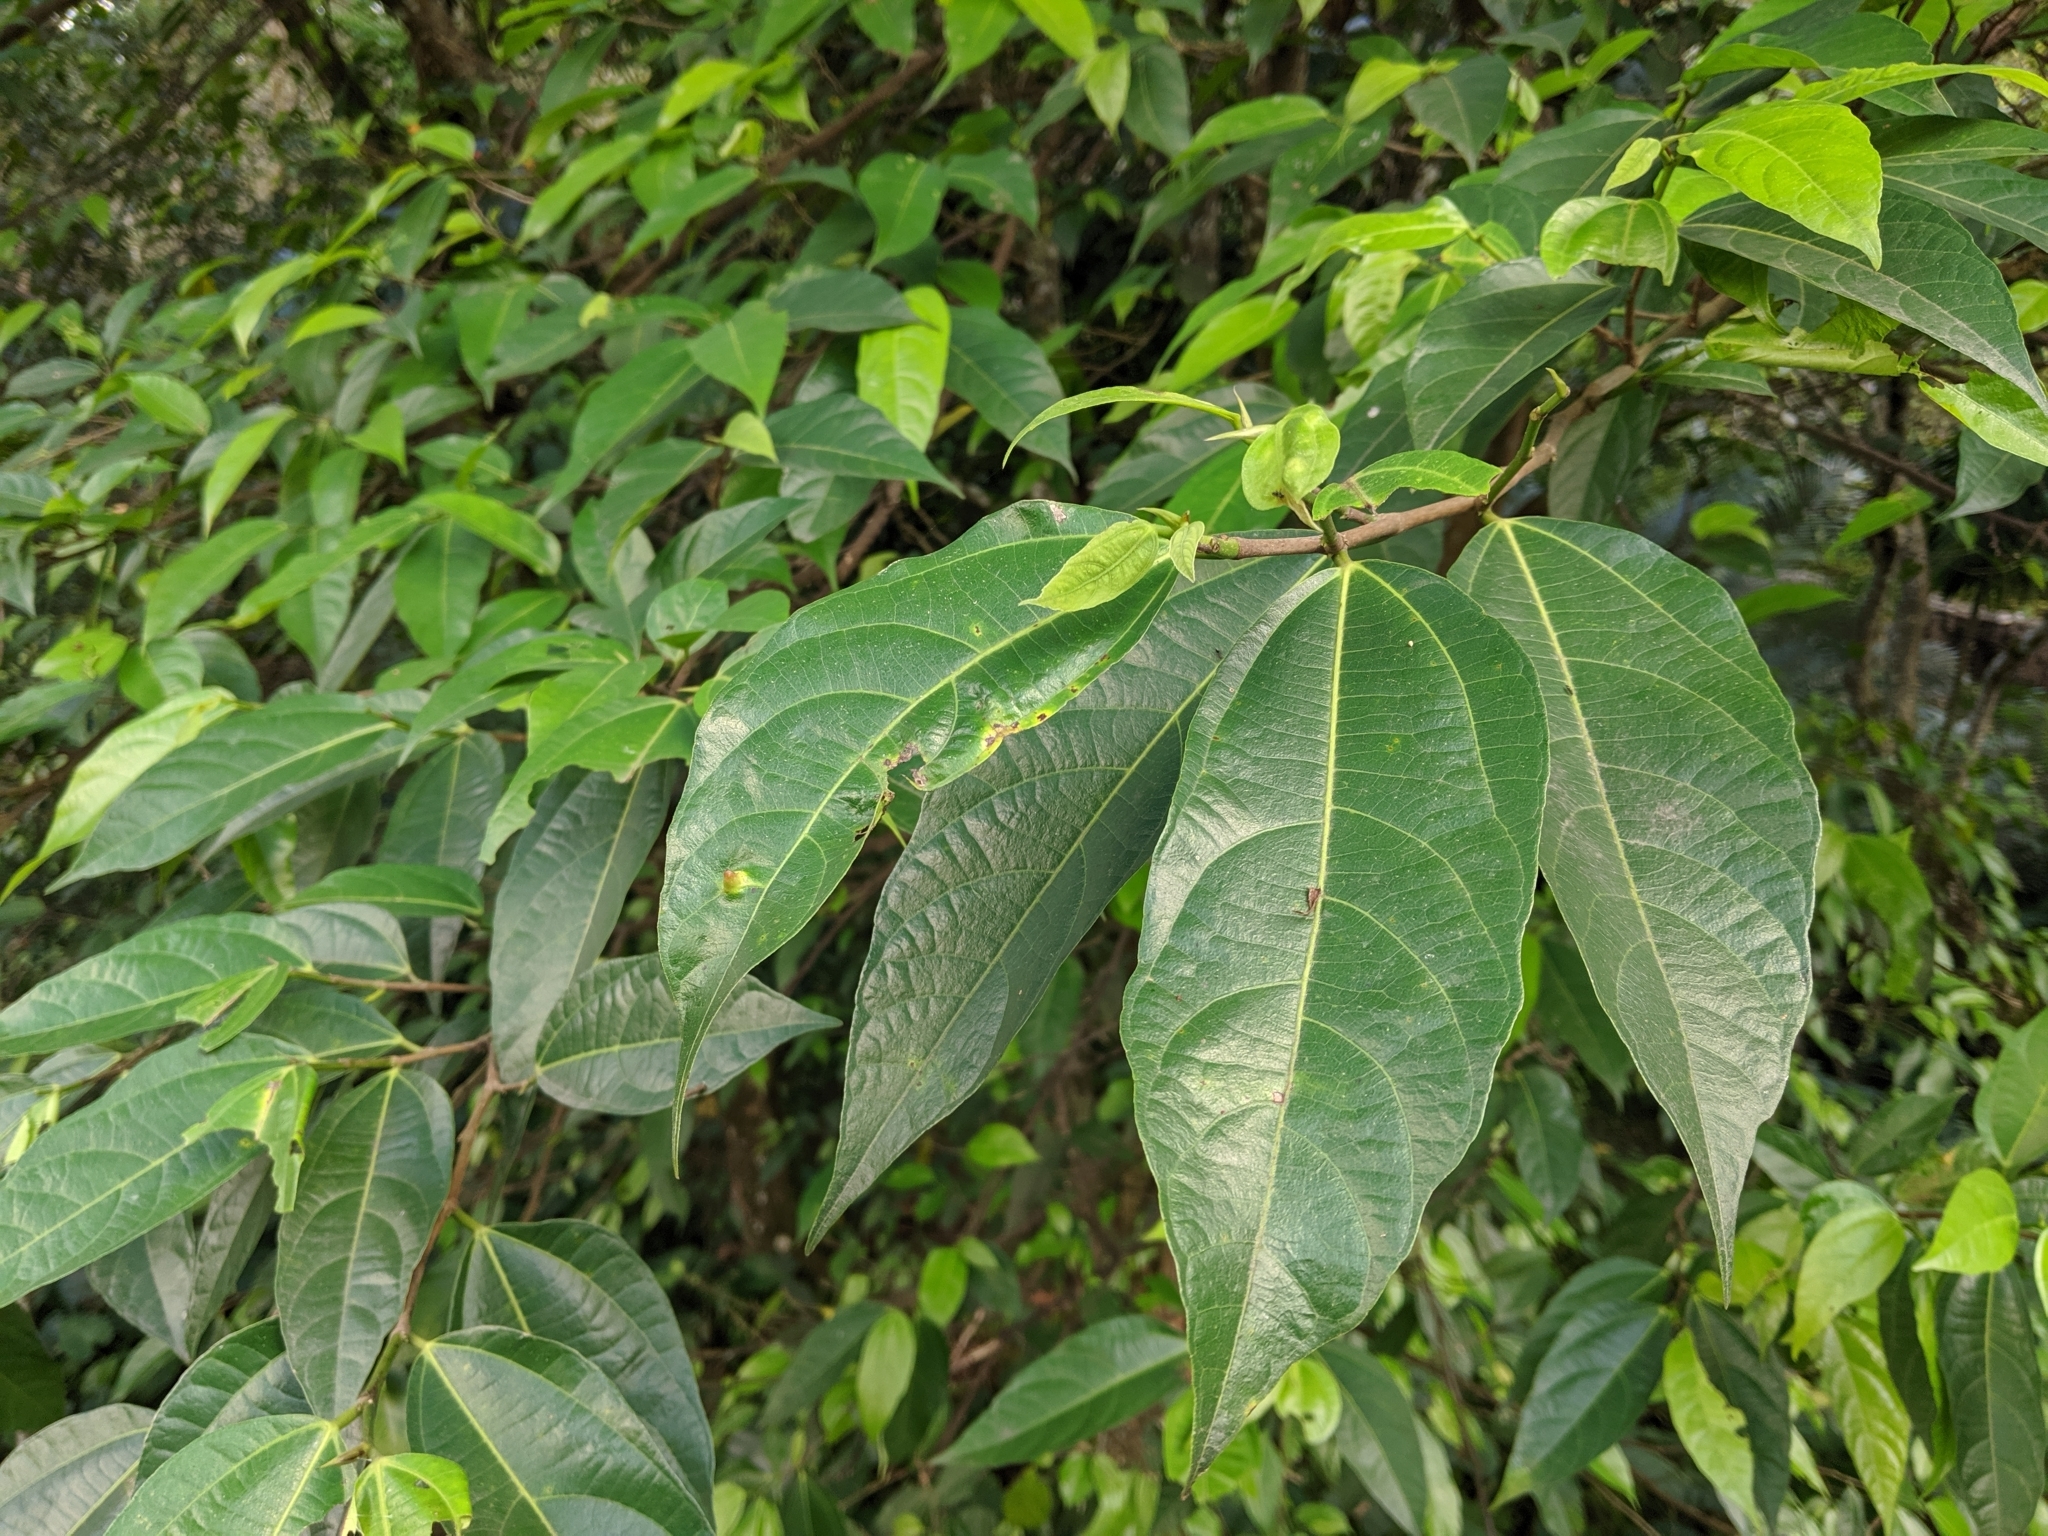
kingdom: Plantae
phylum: Tracheophyta
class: Magnoliopsida
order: Rosales
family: Moraceae
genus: Ficus
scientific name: Ficus ampelos
